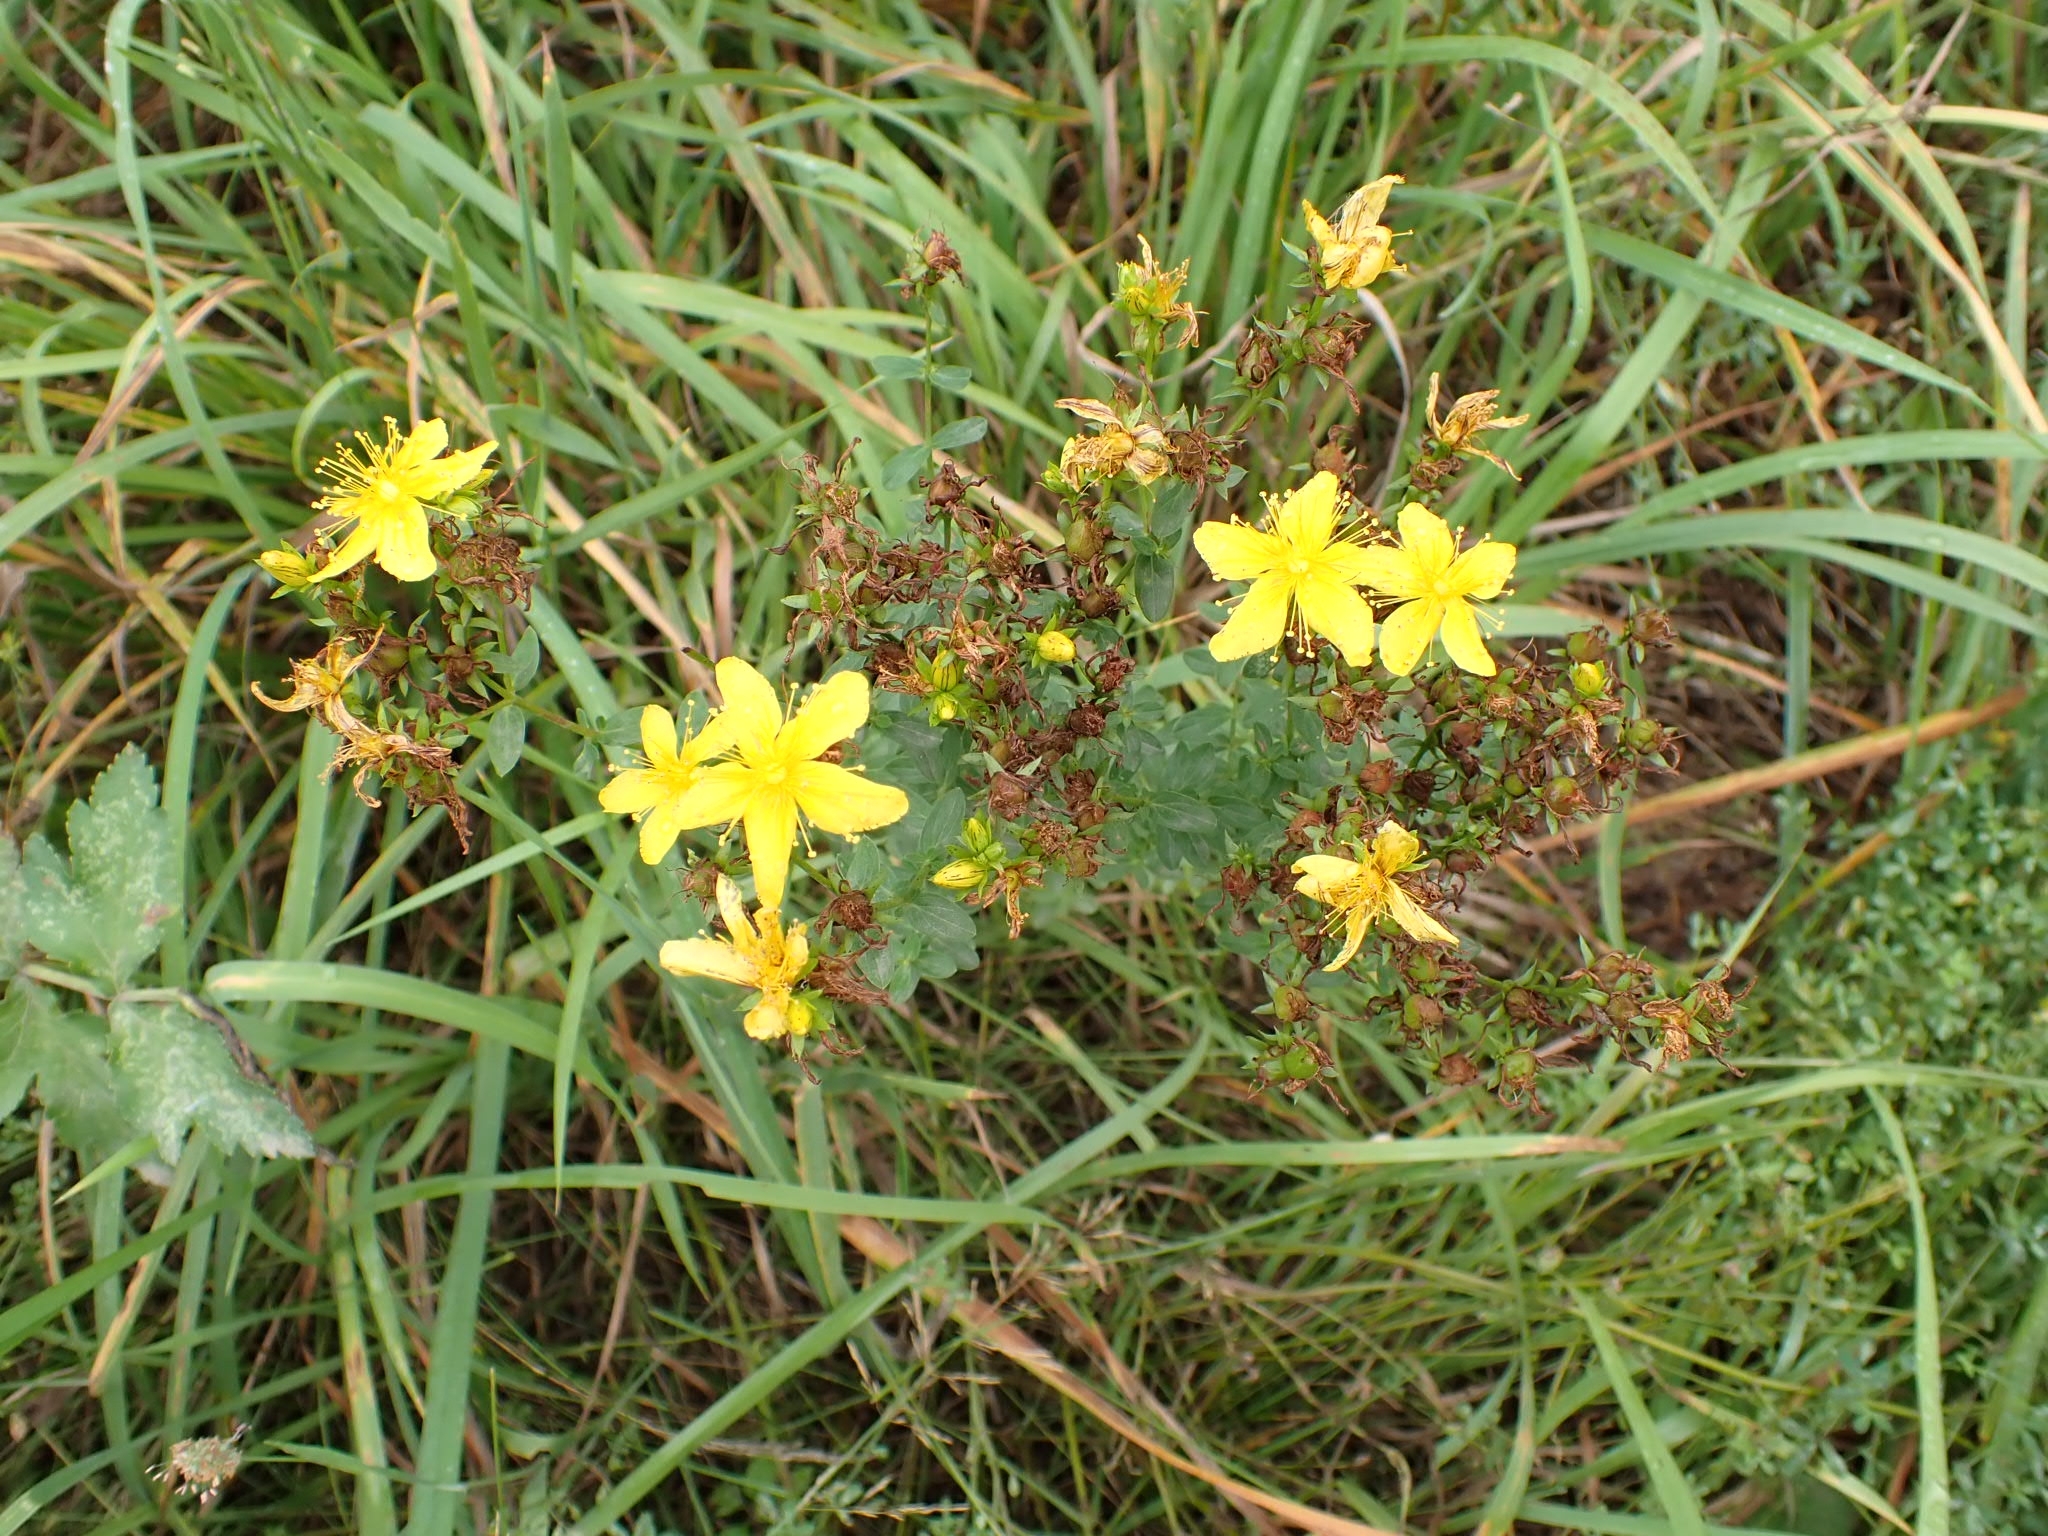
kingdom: Plantae
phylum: Tracheophyta
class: Magnoliopsida
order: Malpighiales
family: Hypericaceae
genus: Hypericum
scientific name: Hypericum perforatum
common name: Common st. johnswort
